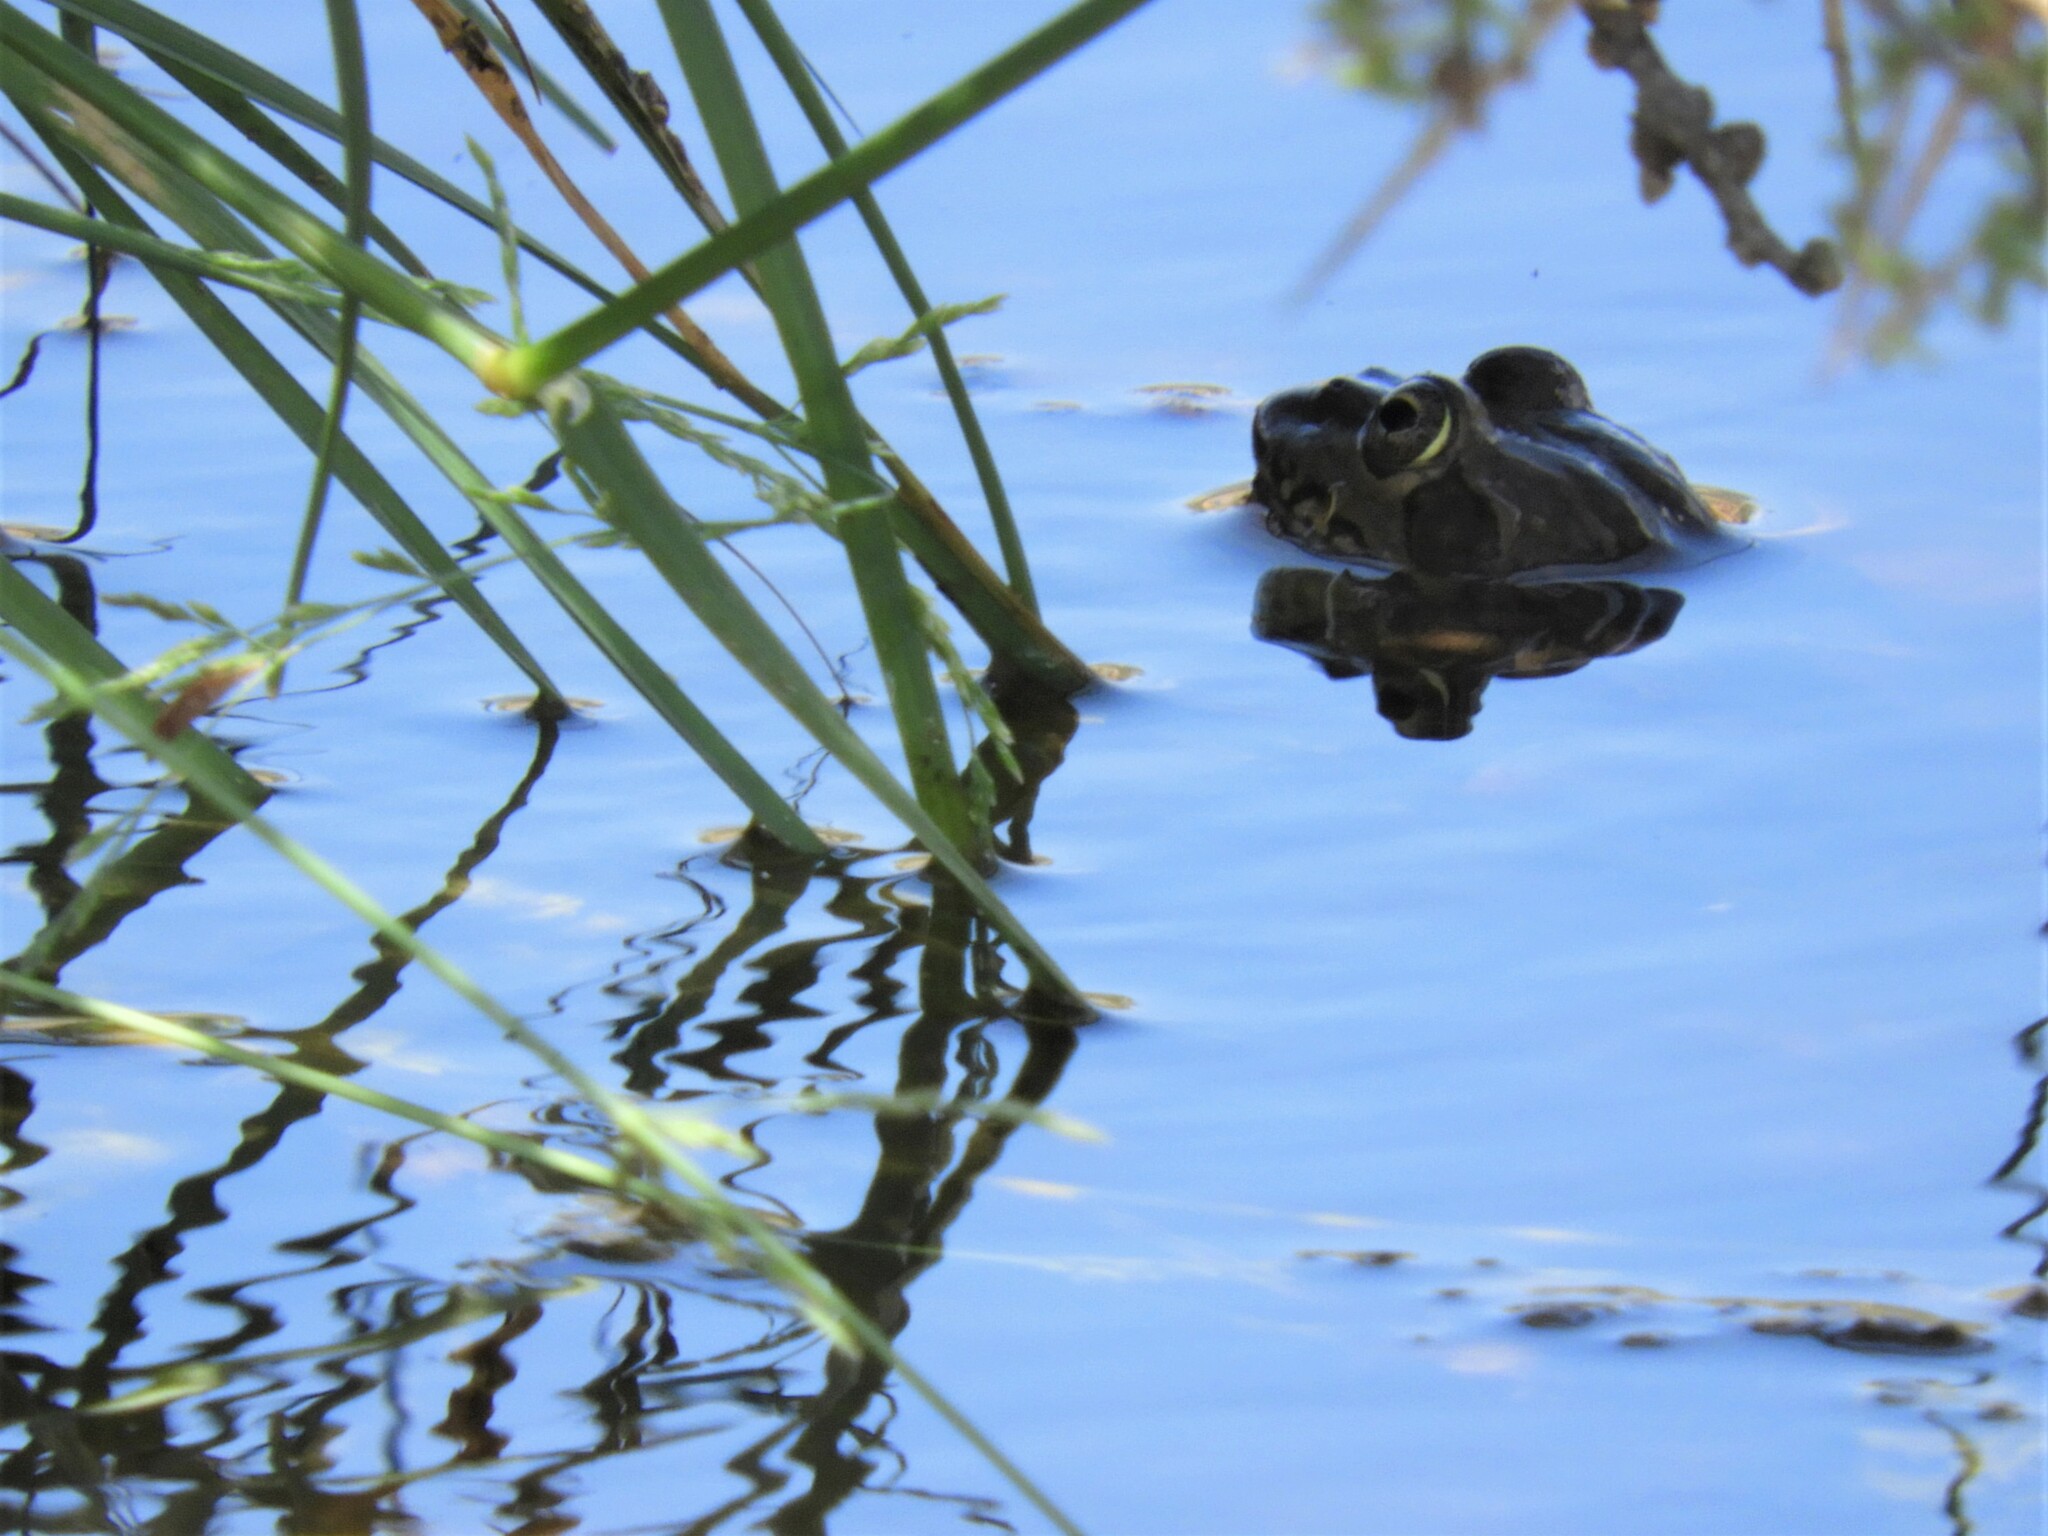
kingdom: Animalia
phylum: Chordata
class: Amphibia
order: Anura
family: Pyxicephalidae
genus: Amietia
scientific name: Amietia poyntoni
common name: Poynton's river frog
